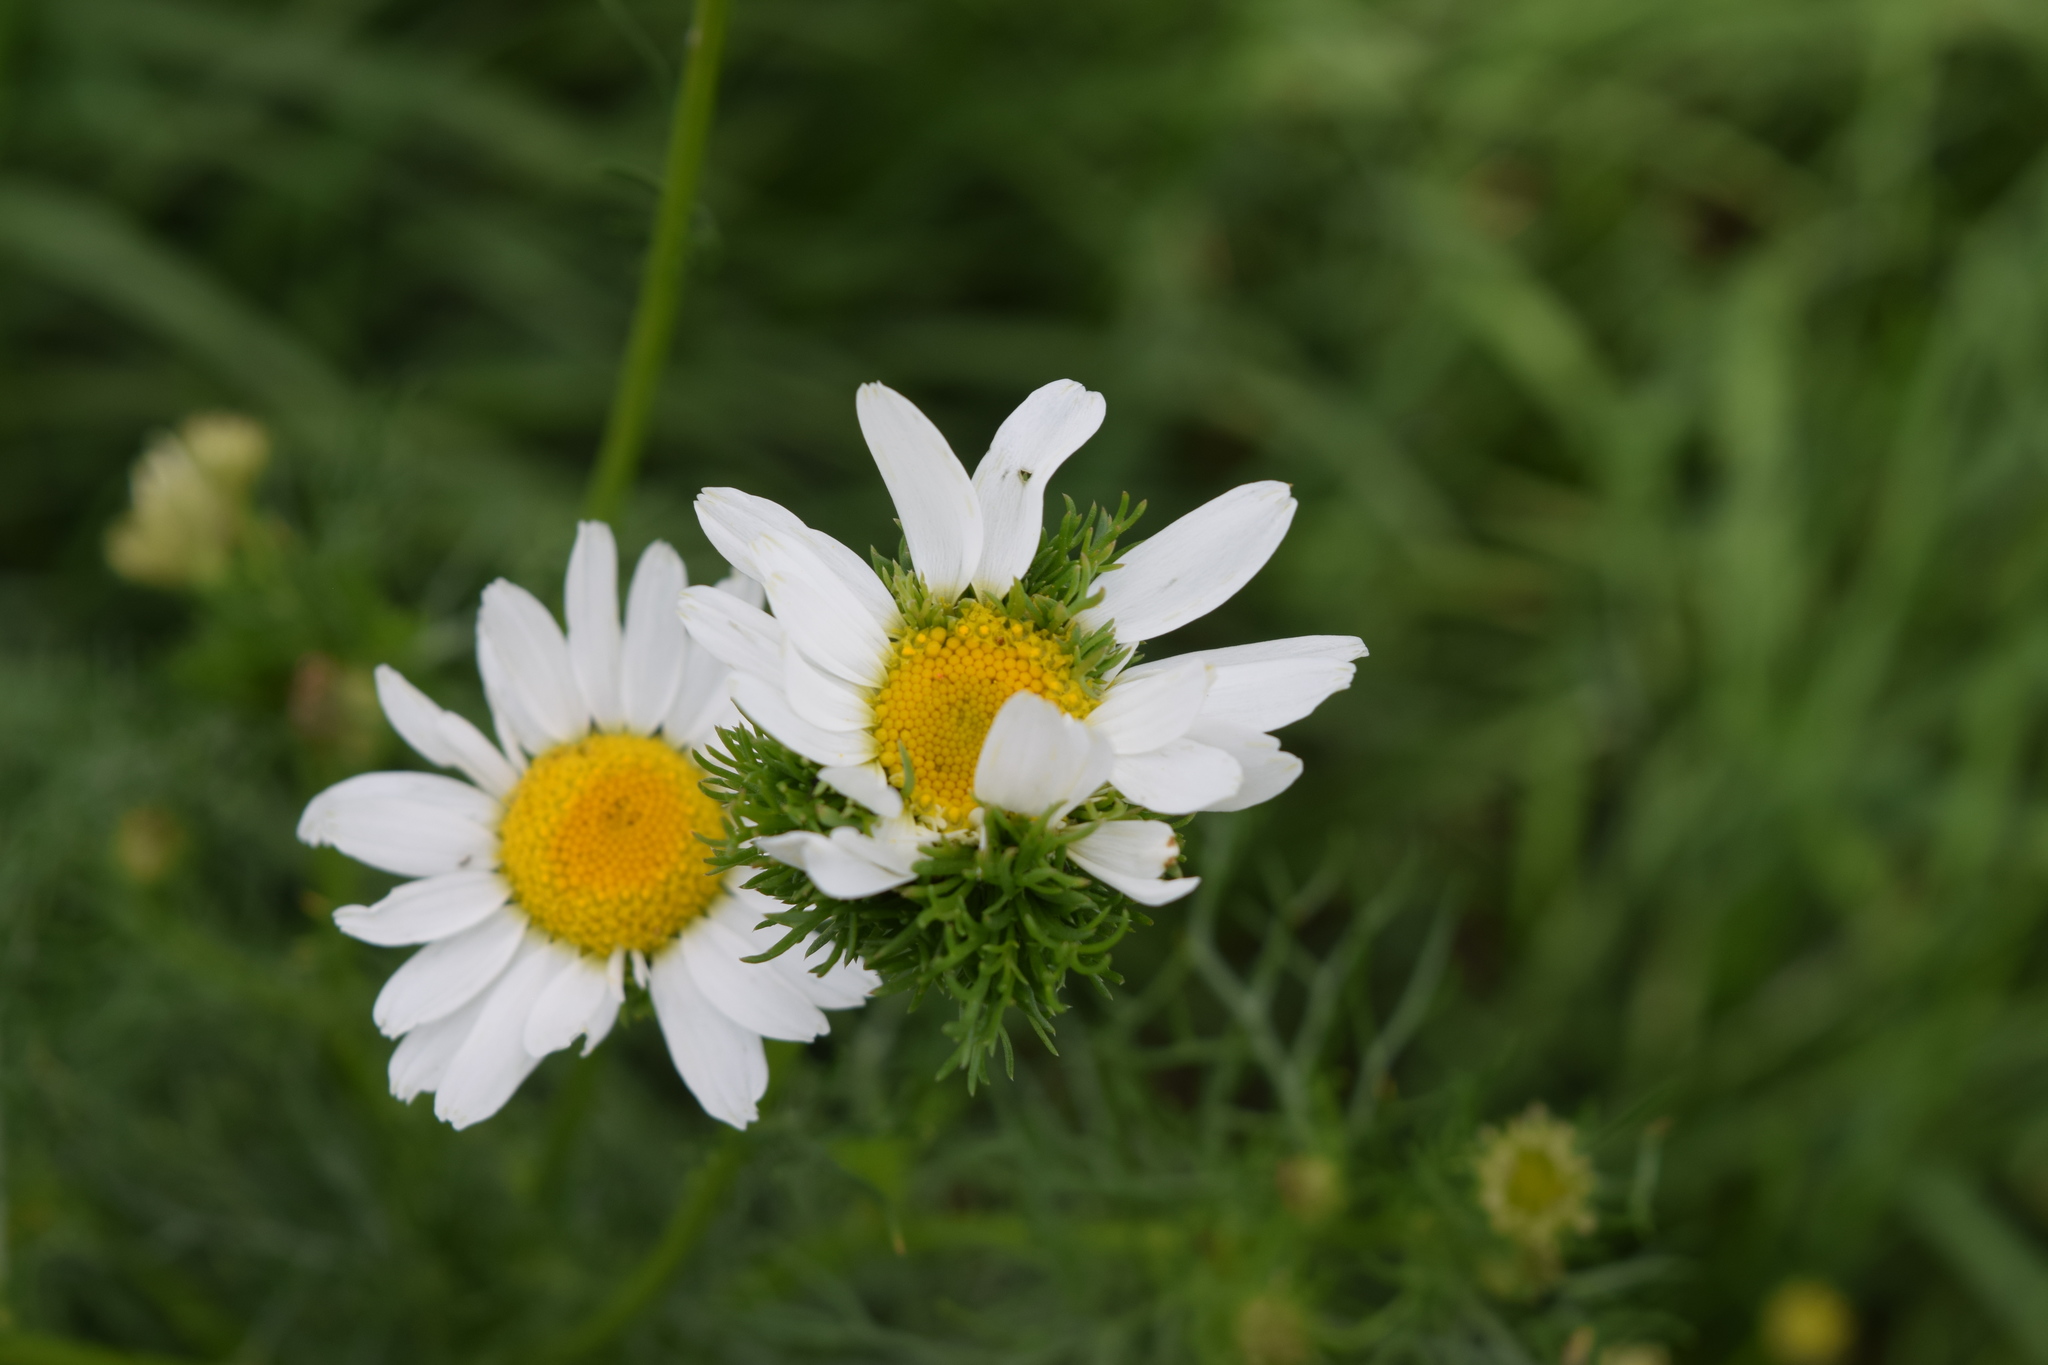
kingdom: Plantae
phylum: Tracheophyta
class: Magnoliopsida
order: Asterales
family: Asteraceae
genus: Tripleurospermum
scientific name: Tripleurospermum inodorum
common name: Scentless mayweed
